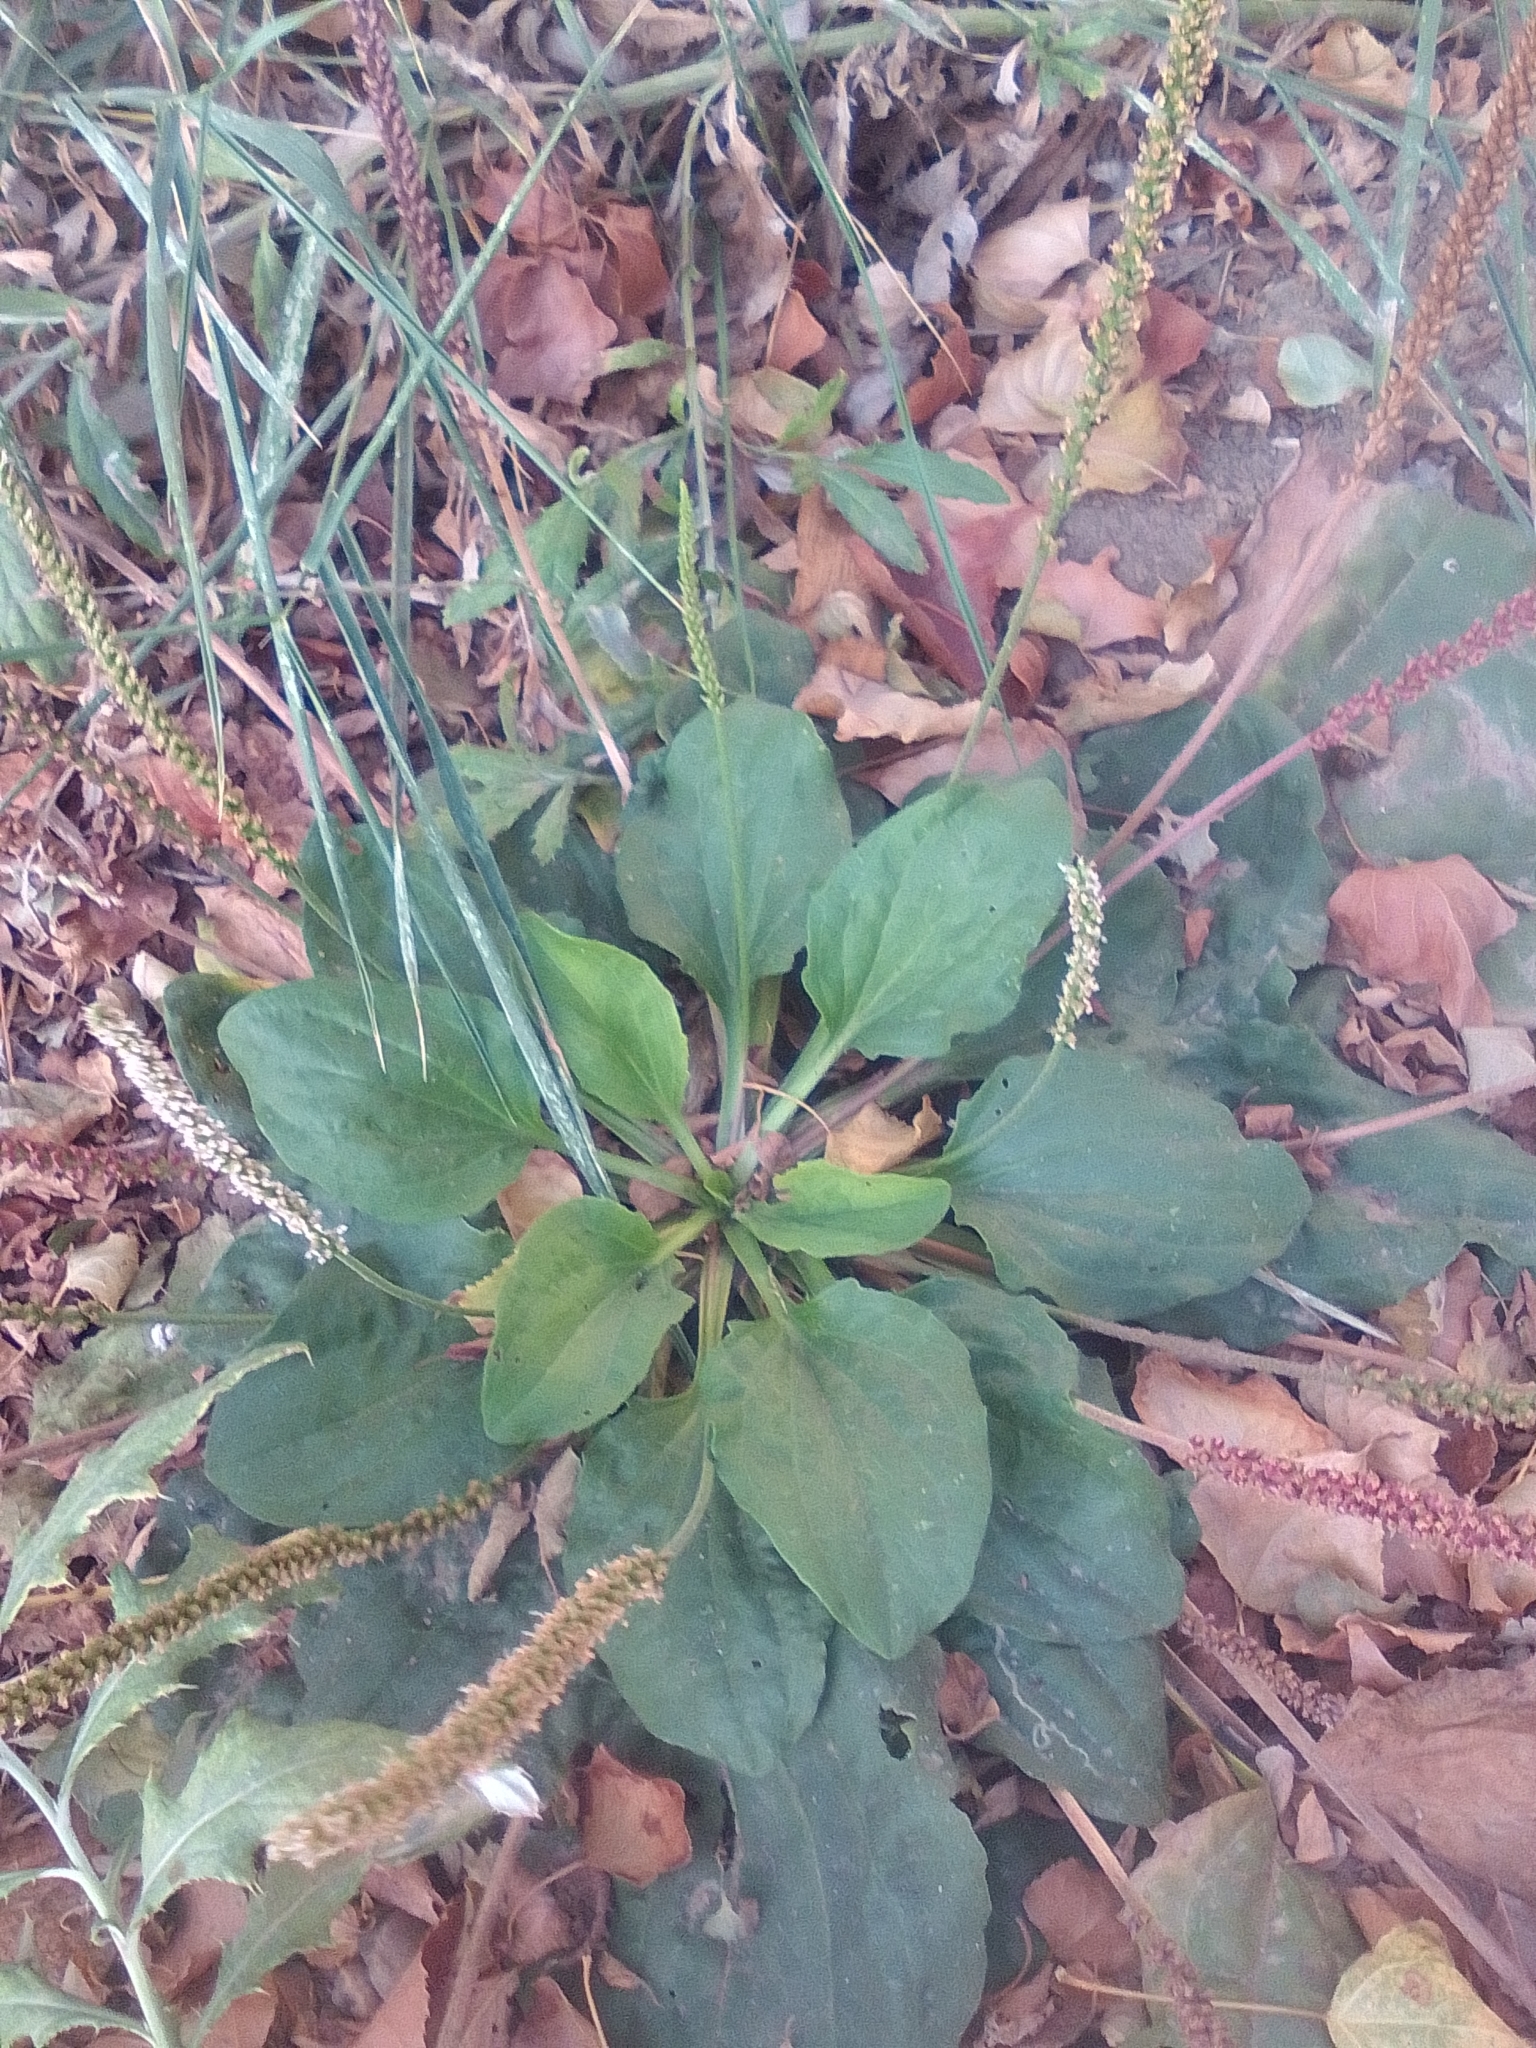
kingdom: Plantae
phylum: Tracheophyta
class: Magnoliopsida
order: Lamiales
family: Plantaginaceae
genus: Plantago
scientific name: Plantago major
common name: Common plantain
